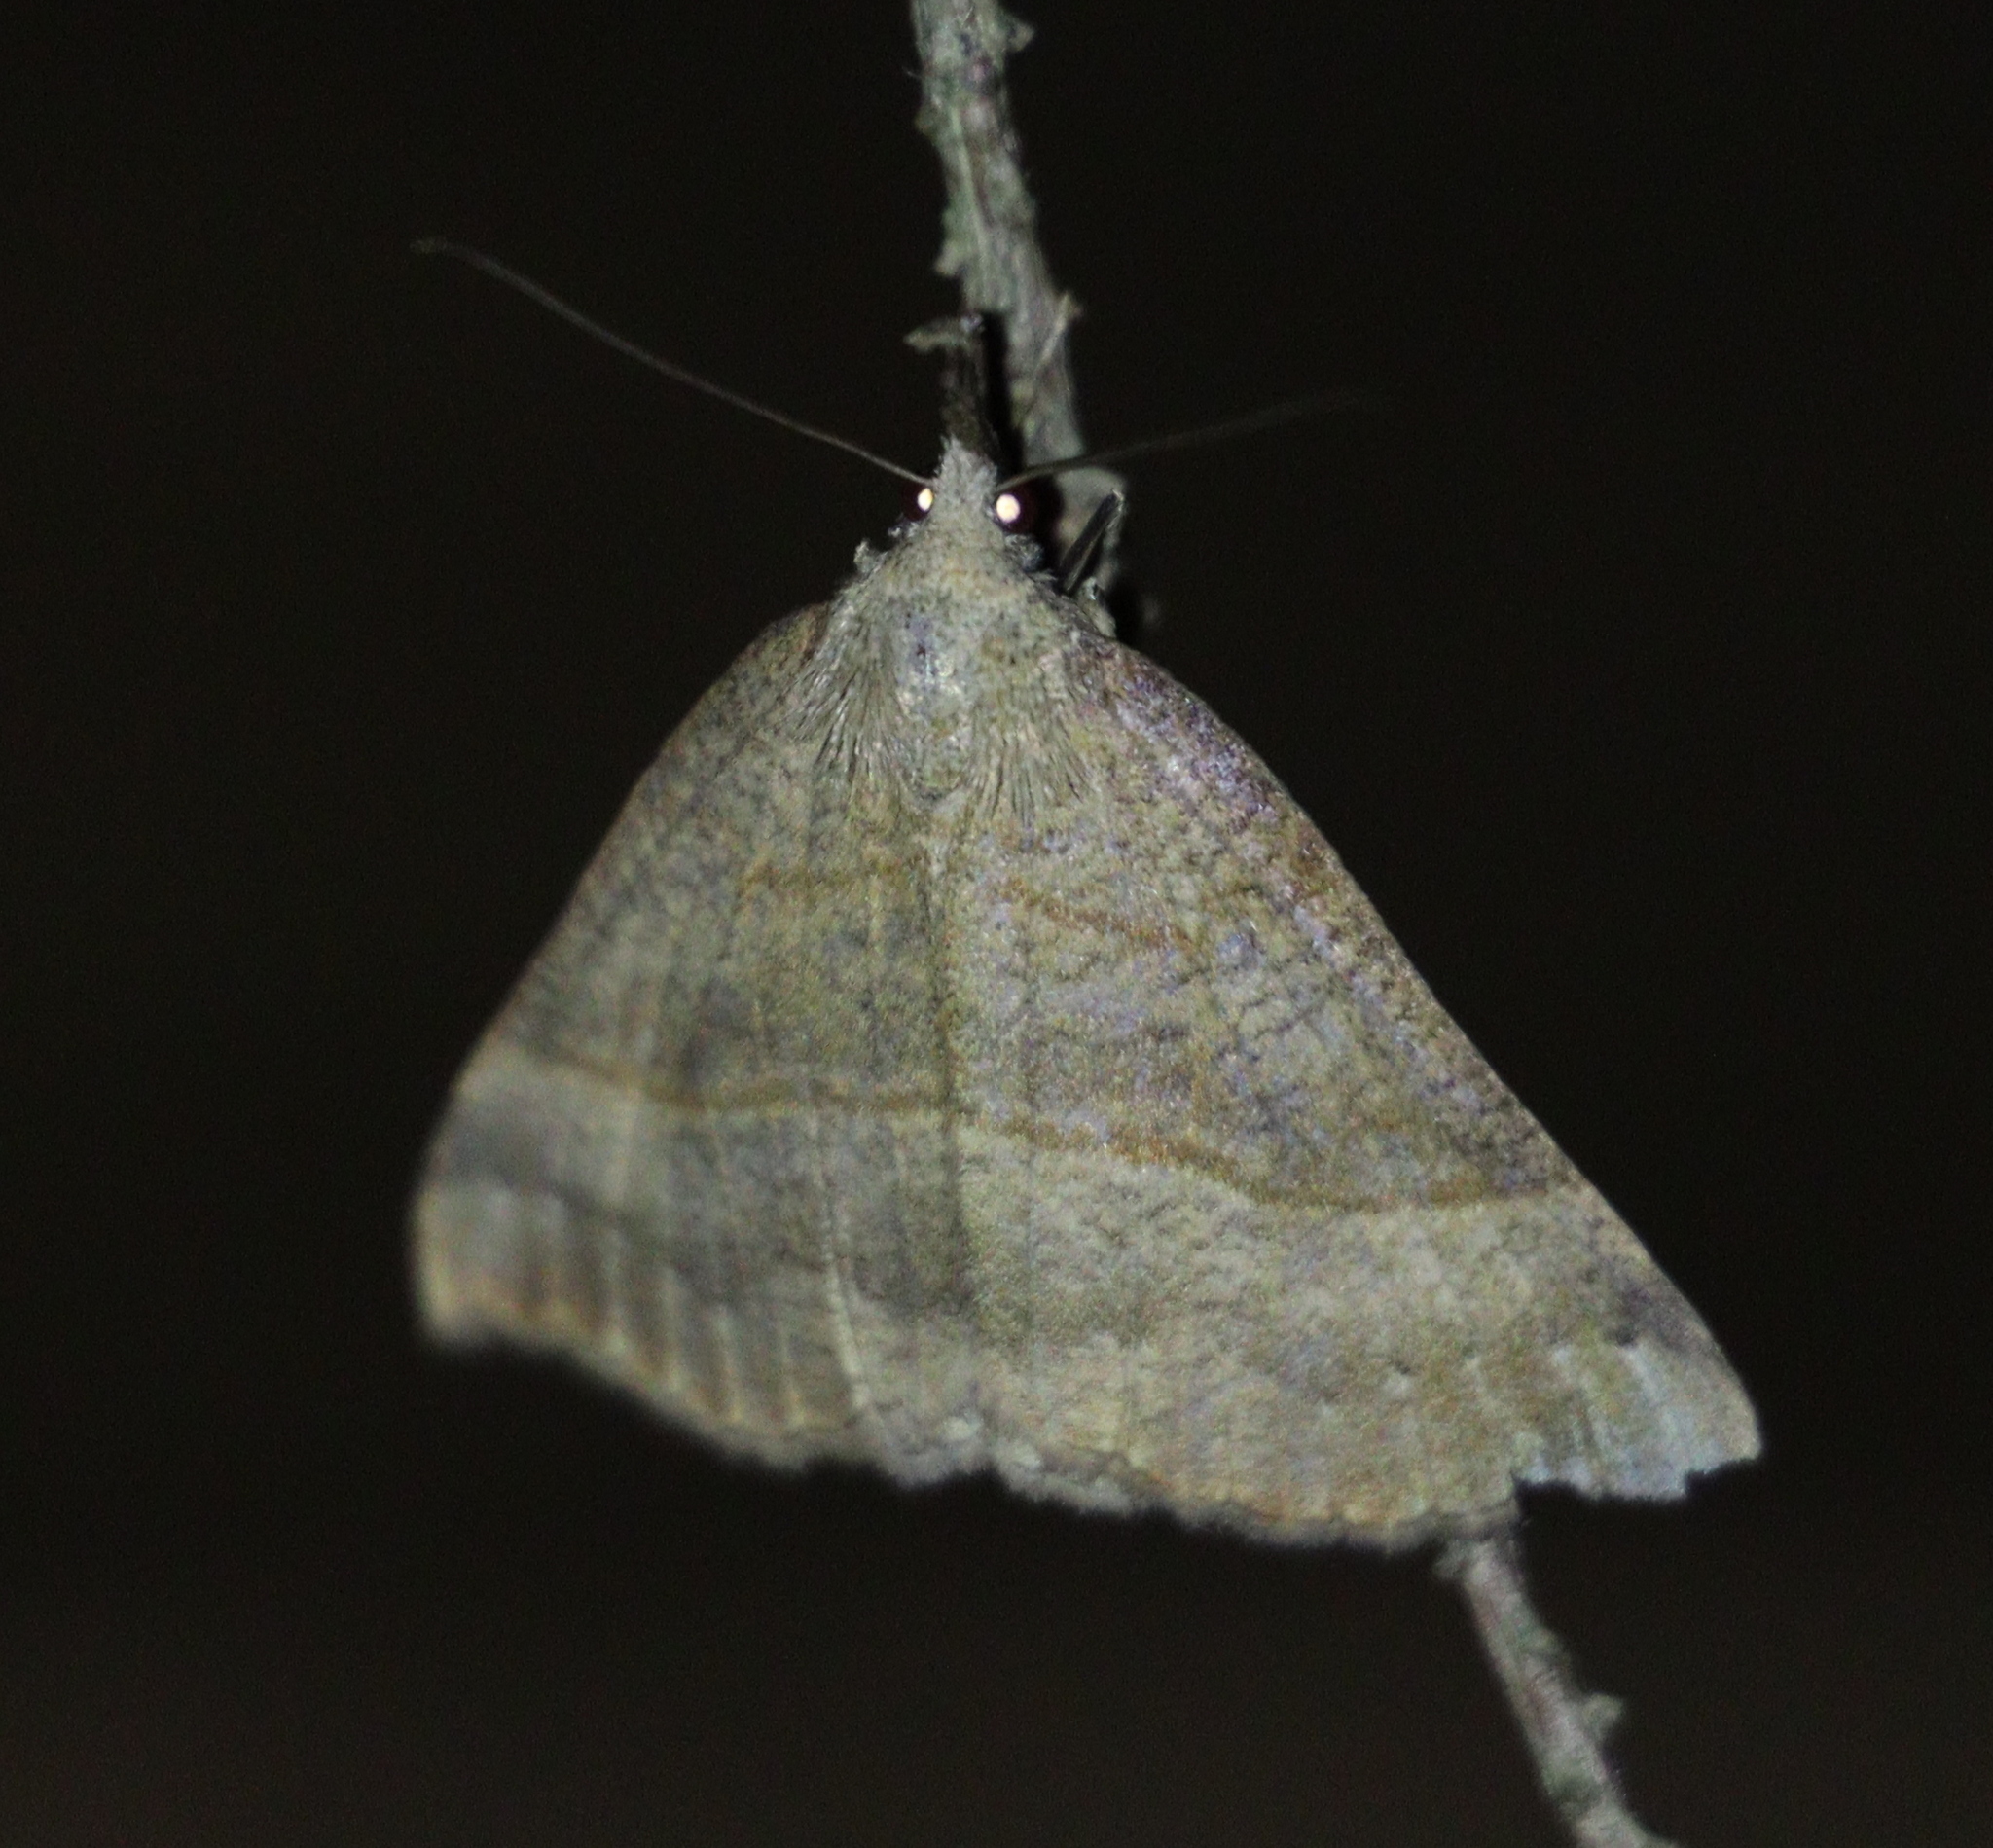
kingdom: Animalia
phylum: Arthropoda
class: Insecta
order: Lepidoptera
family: Erebidae
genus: Hypena
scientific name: Hypena proboscidalis
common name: Snout
